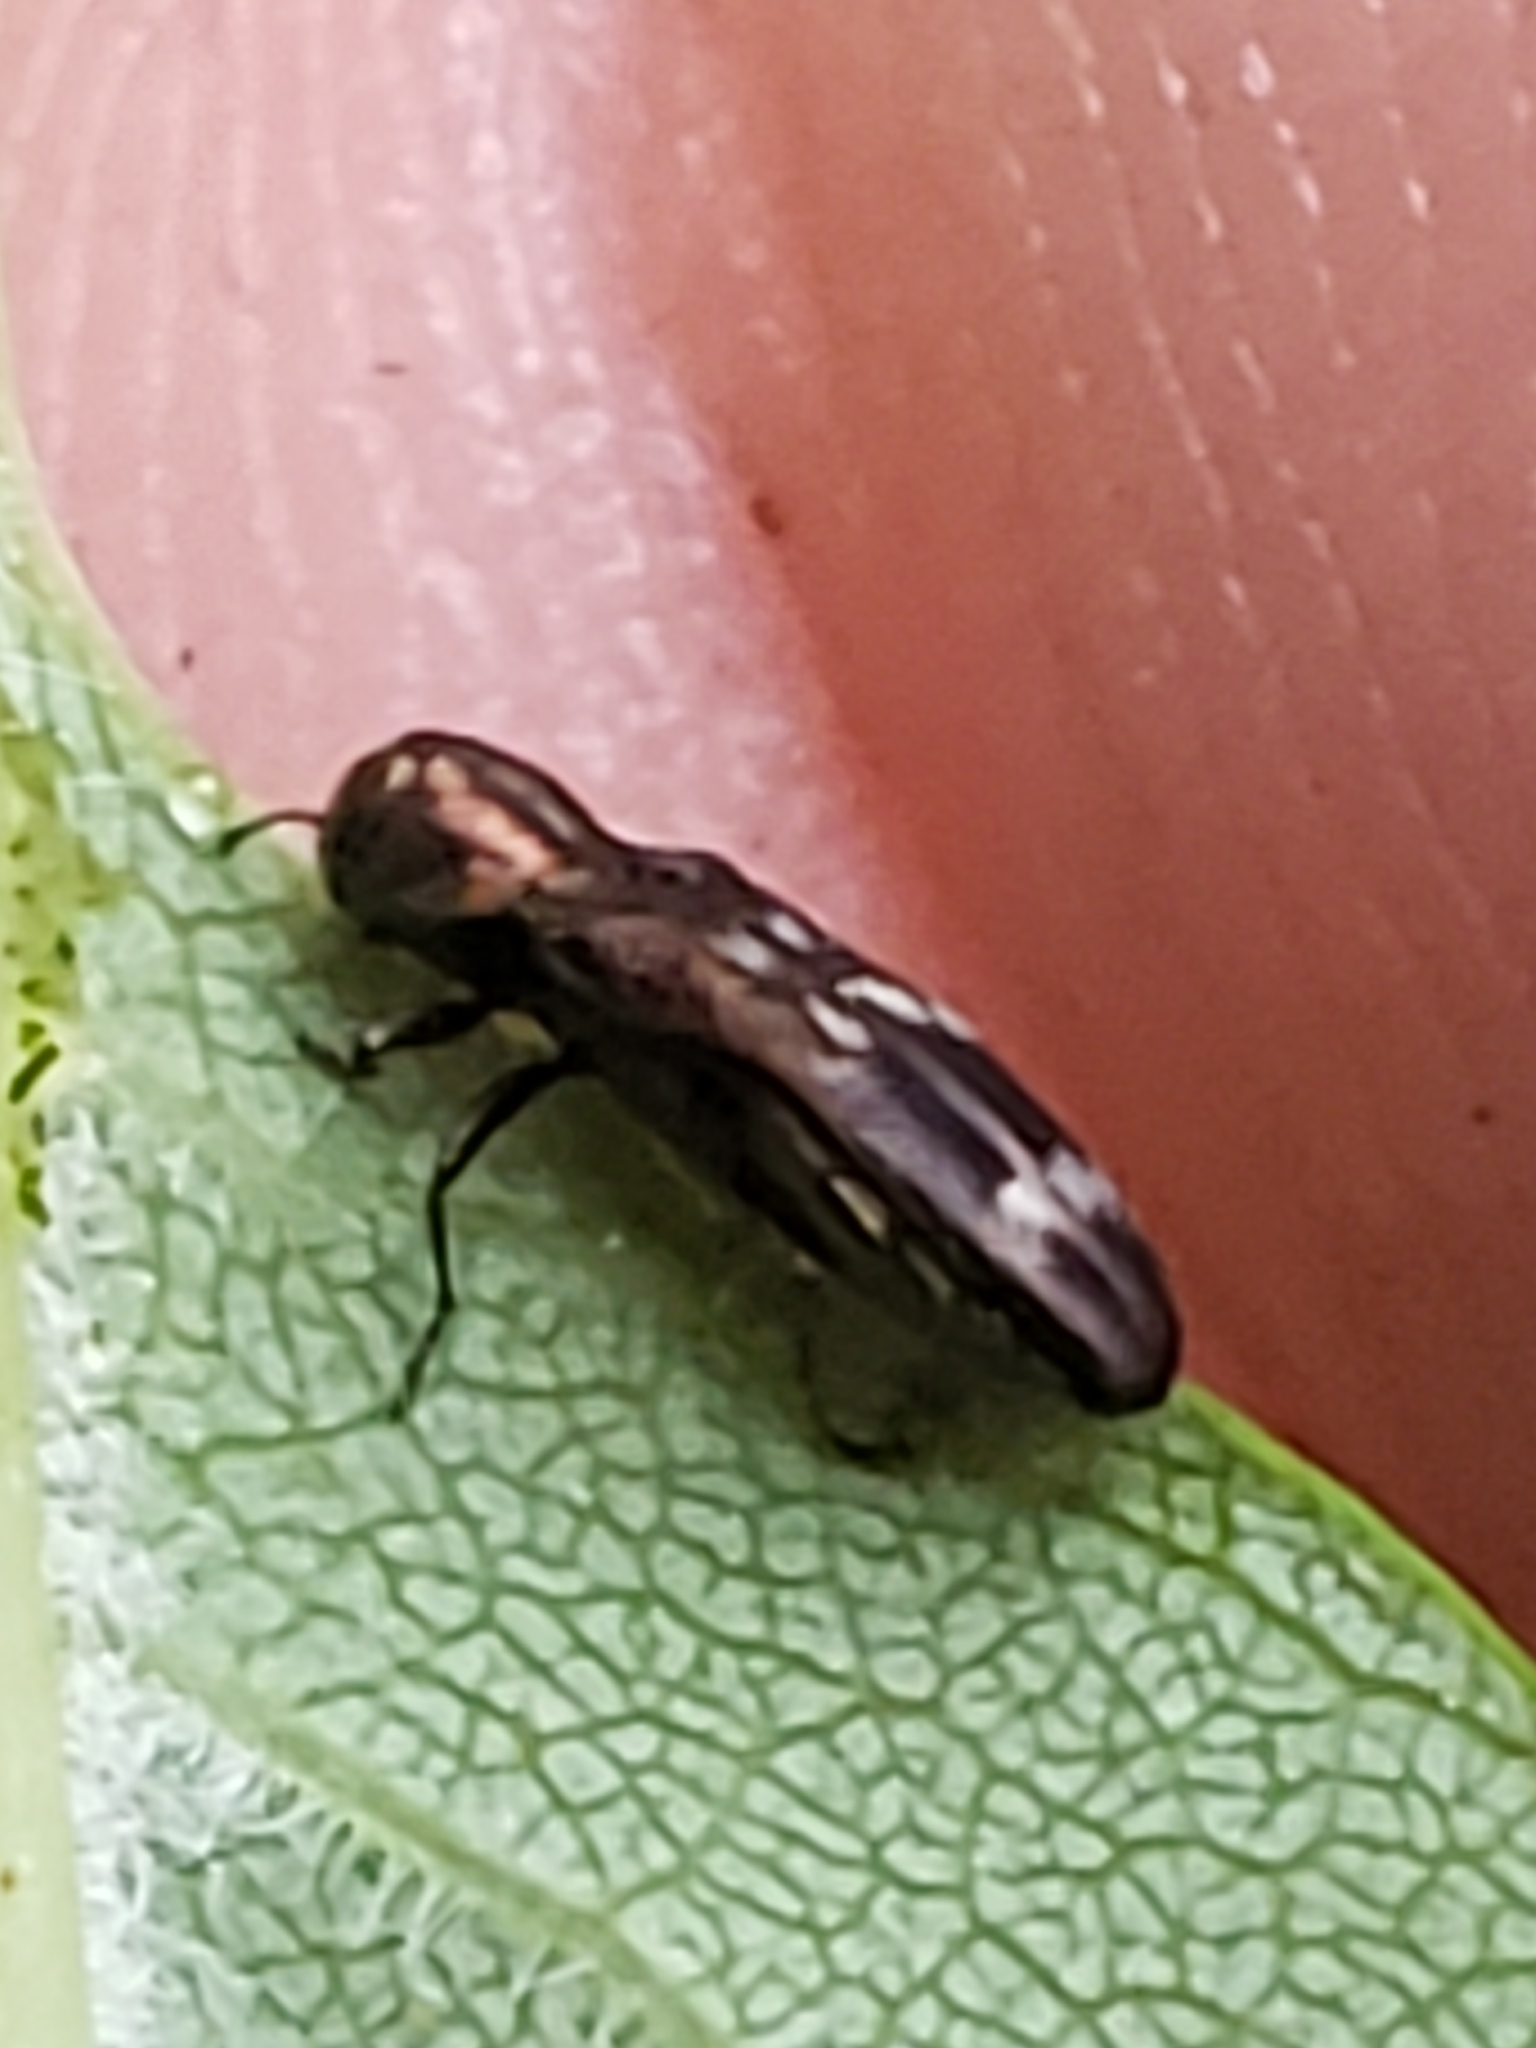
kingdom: Animalia
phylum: Arthropoda
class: Insecta
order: Coleoptera
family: Buprestidae
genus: Agrilus
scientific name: Agrilus subcinctus
